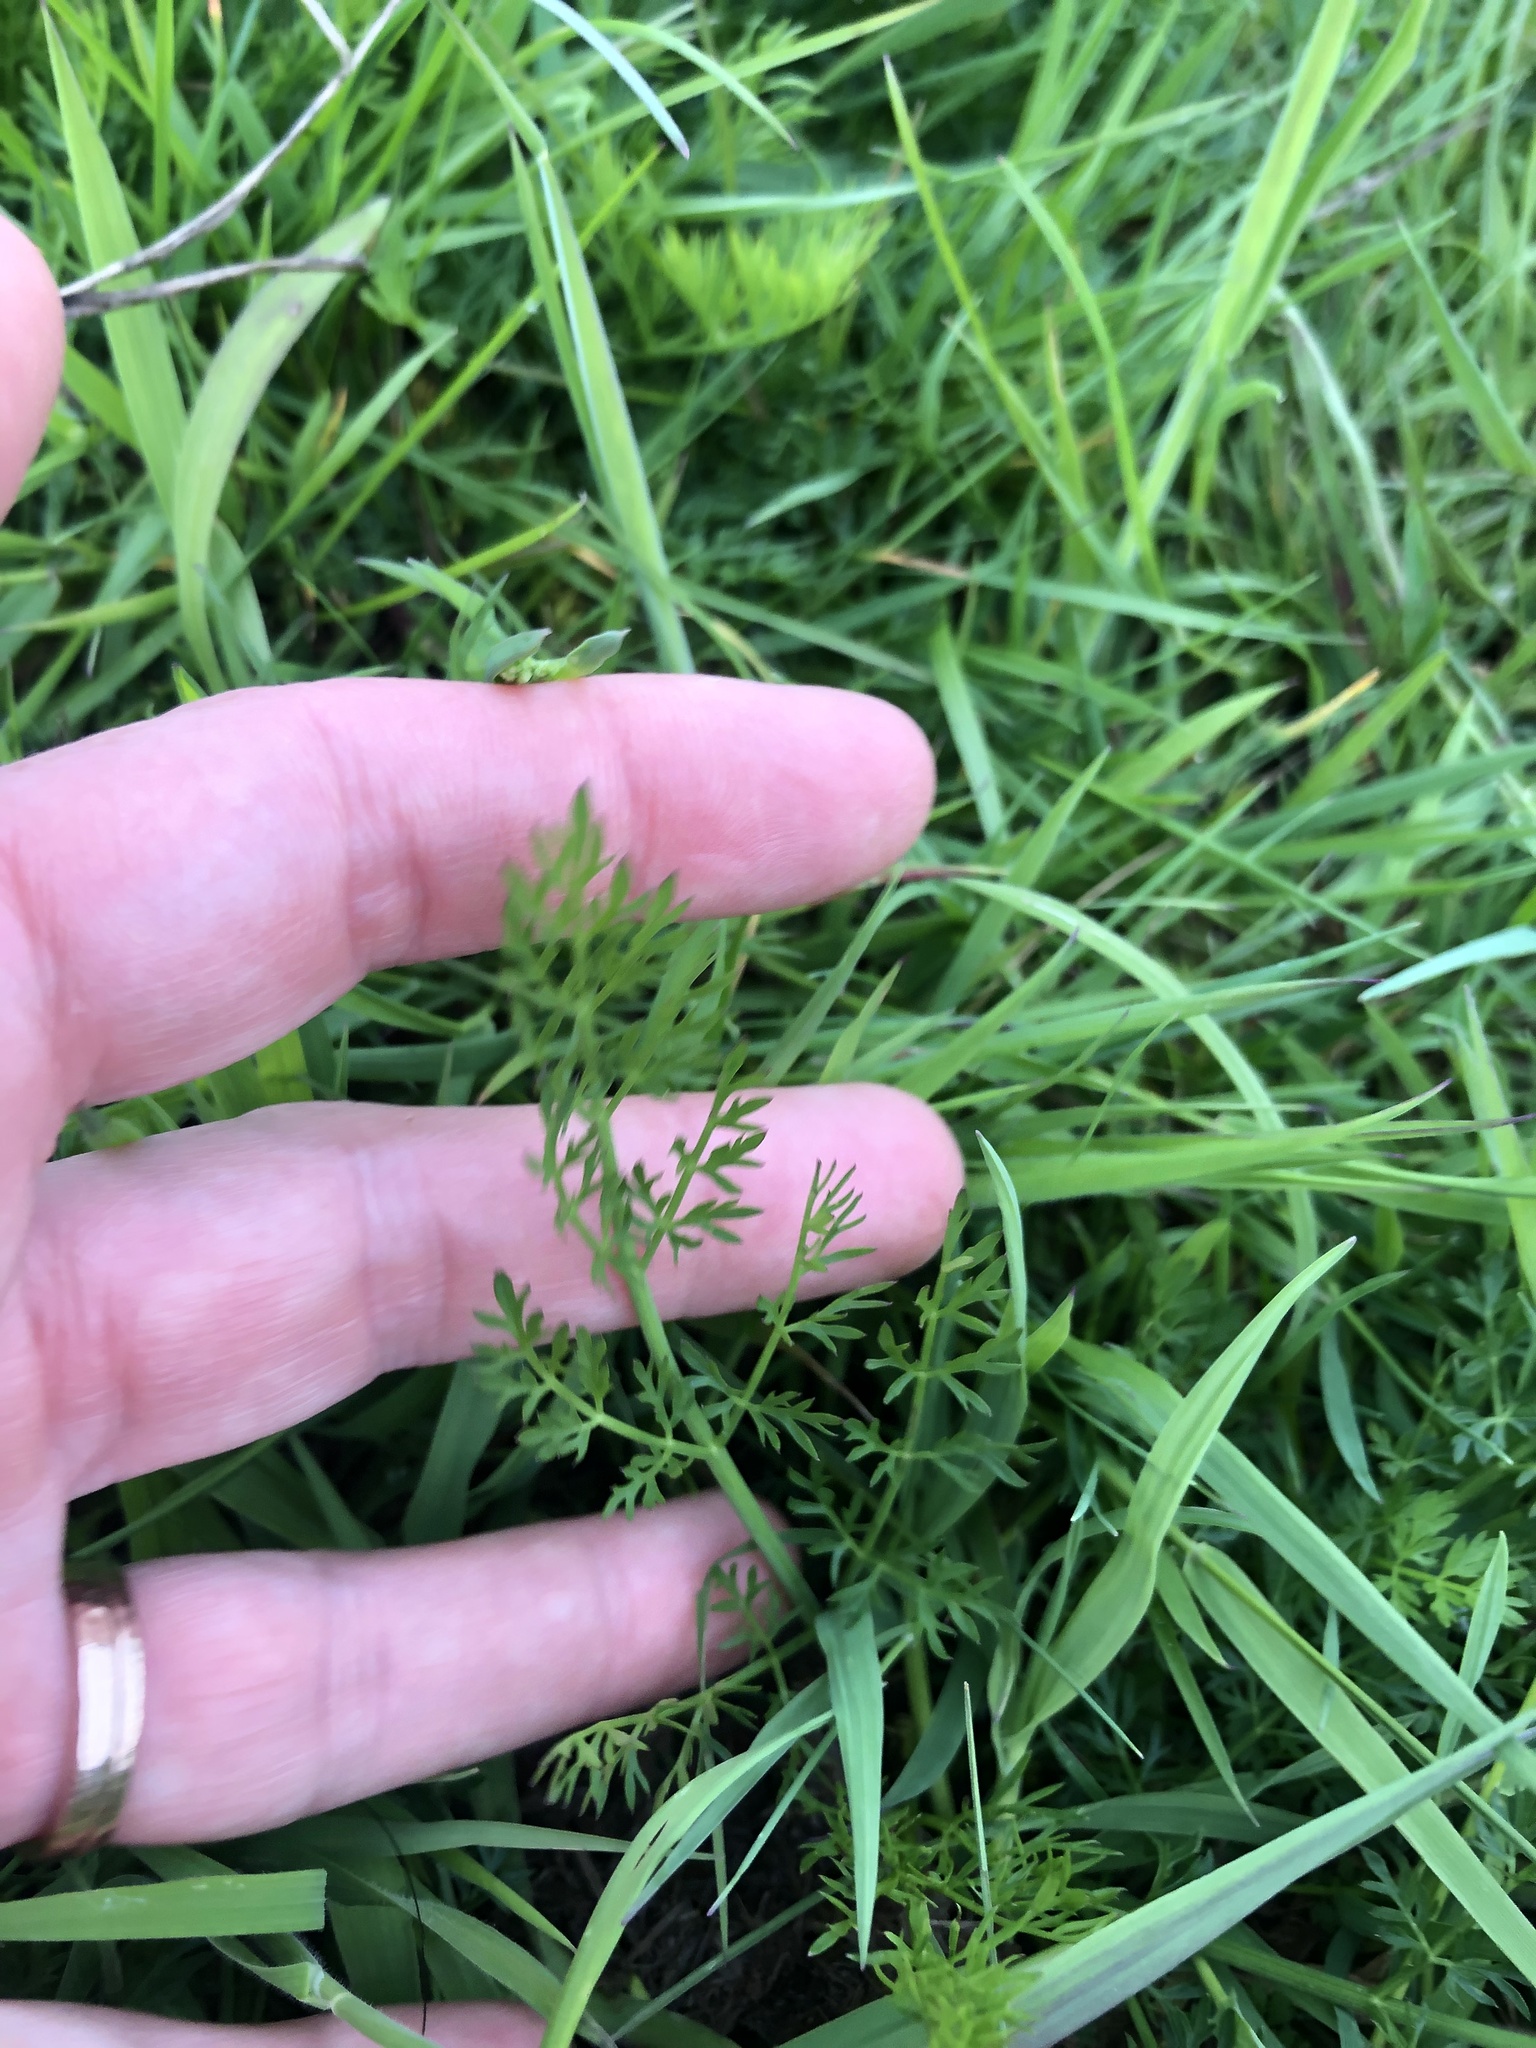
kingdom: Plantae
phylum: Tracheophyta
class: Magnoliopsida
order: Apiales
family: Apiaceae
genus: Oenanthe
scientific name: Oenanthe pimpinelloides
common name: Corky-fruited water-dropwort
